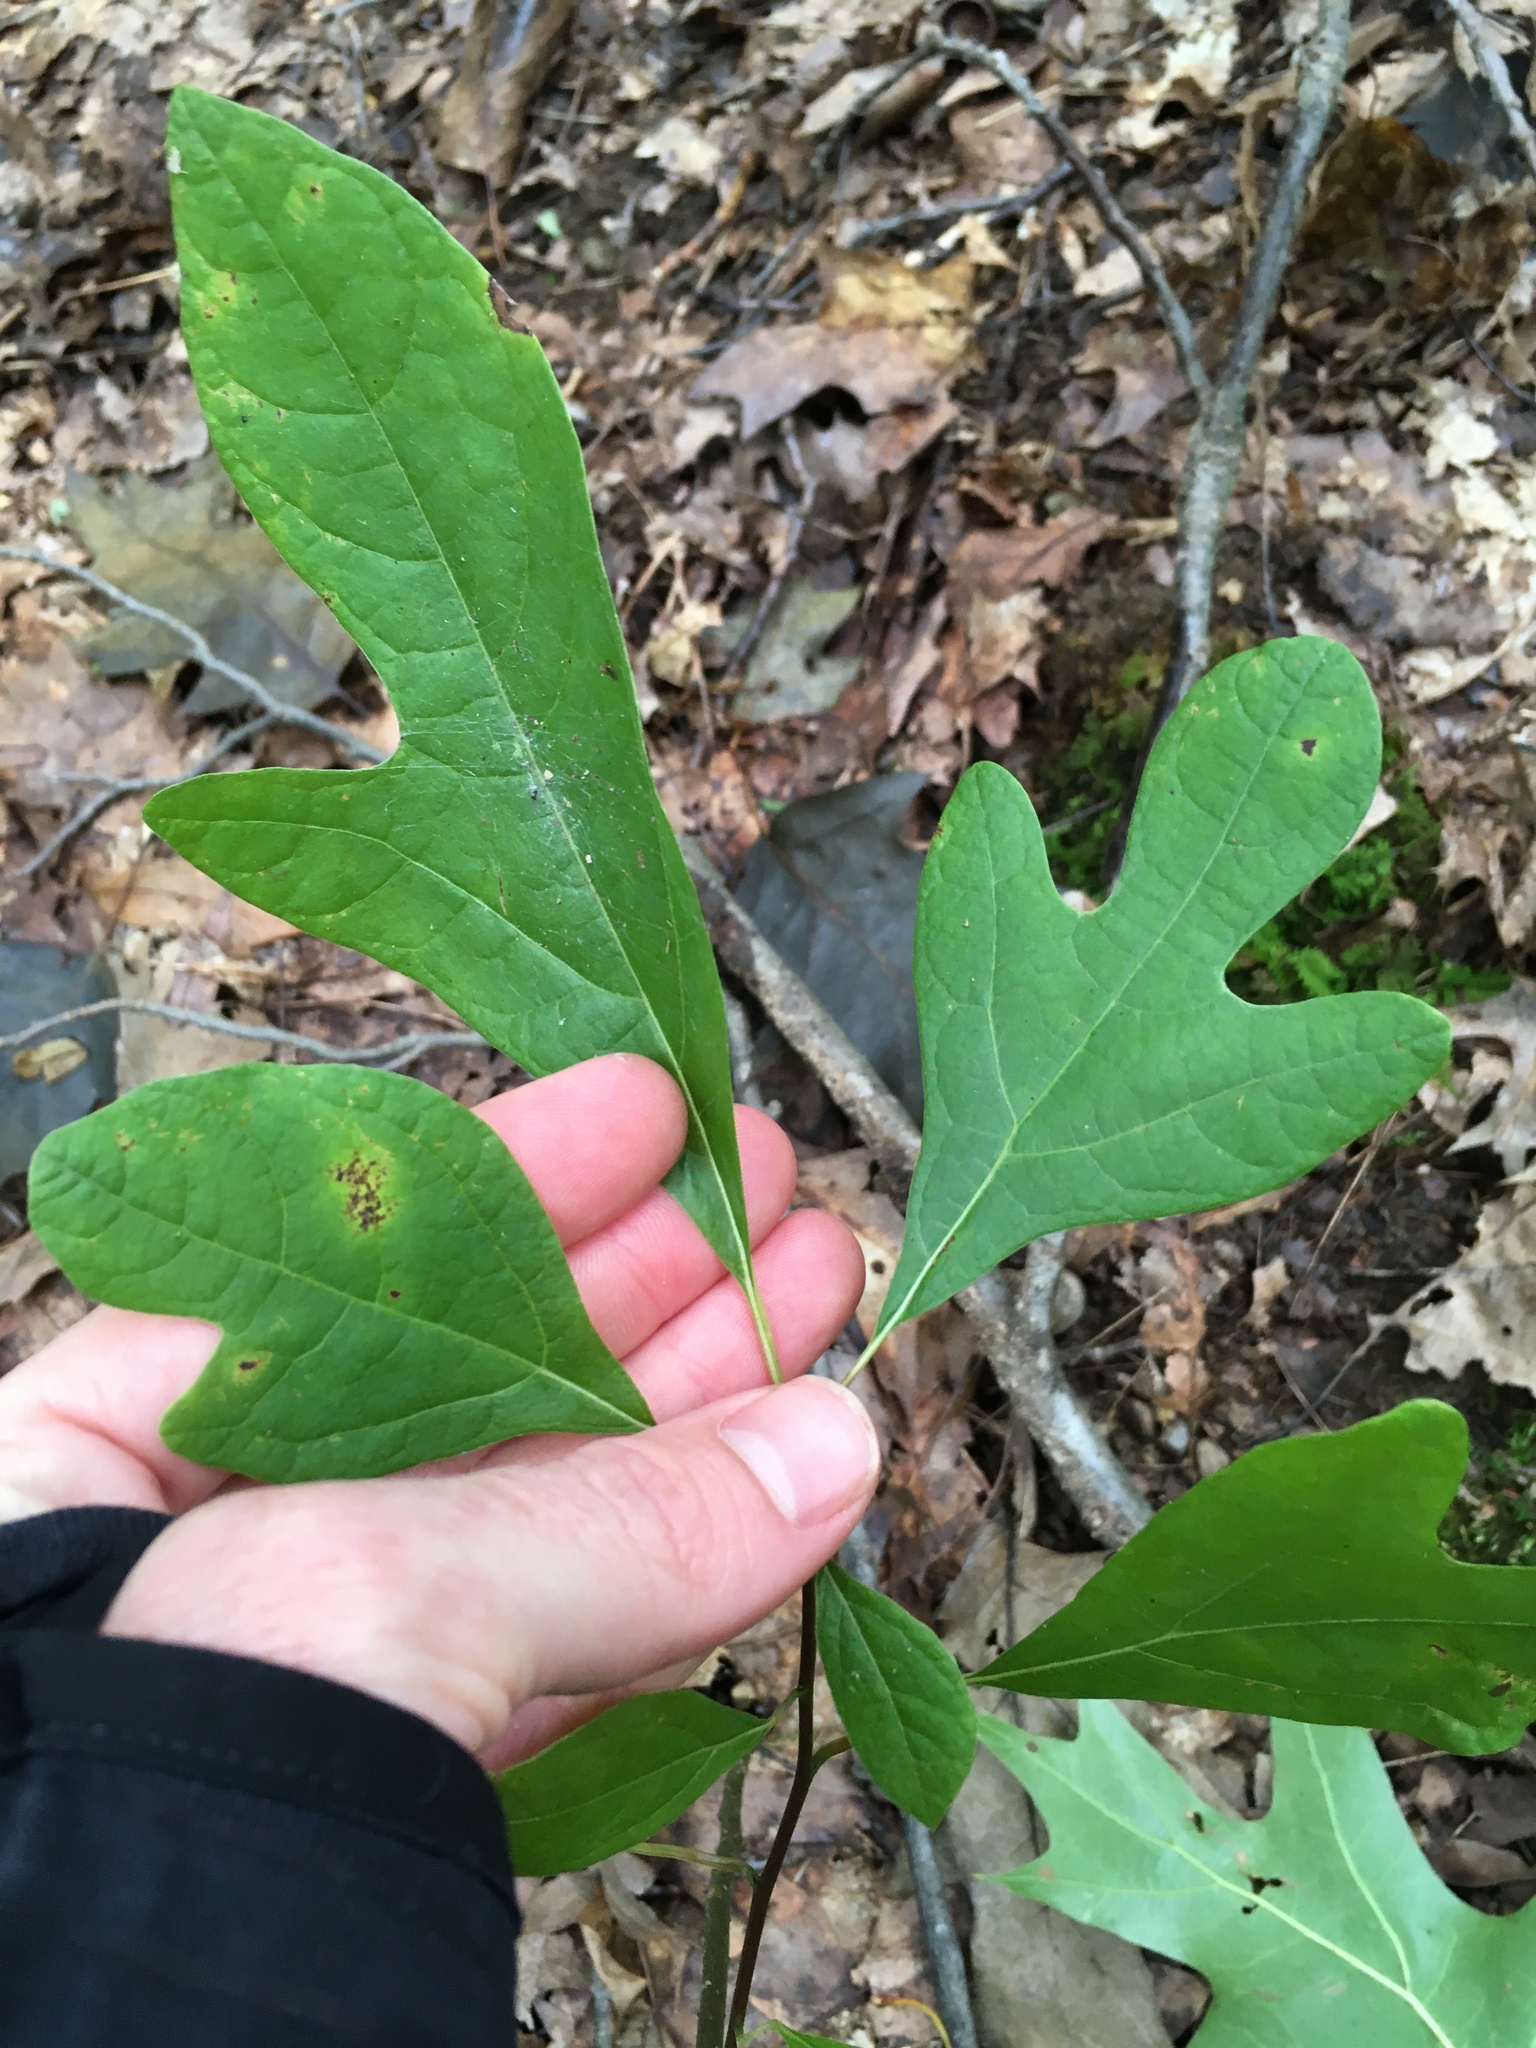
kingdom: Plantae
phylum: Tracheophyta
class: Magnoliopsida
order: Laurales
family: Lauraceae
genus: Sassafras
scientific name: Sassafras albidum
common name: Sassafras
